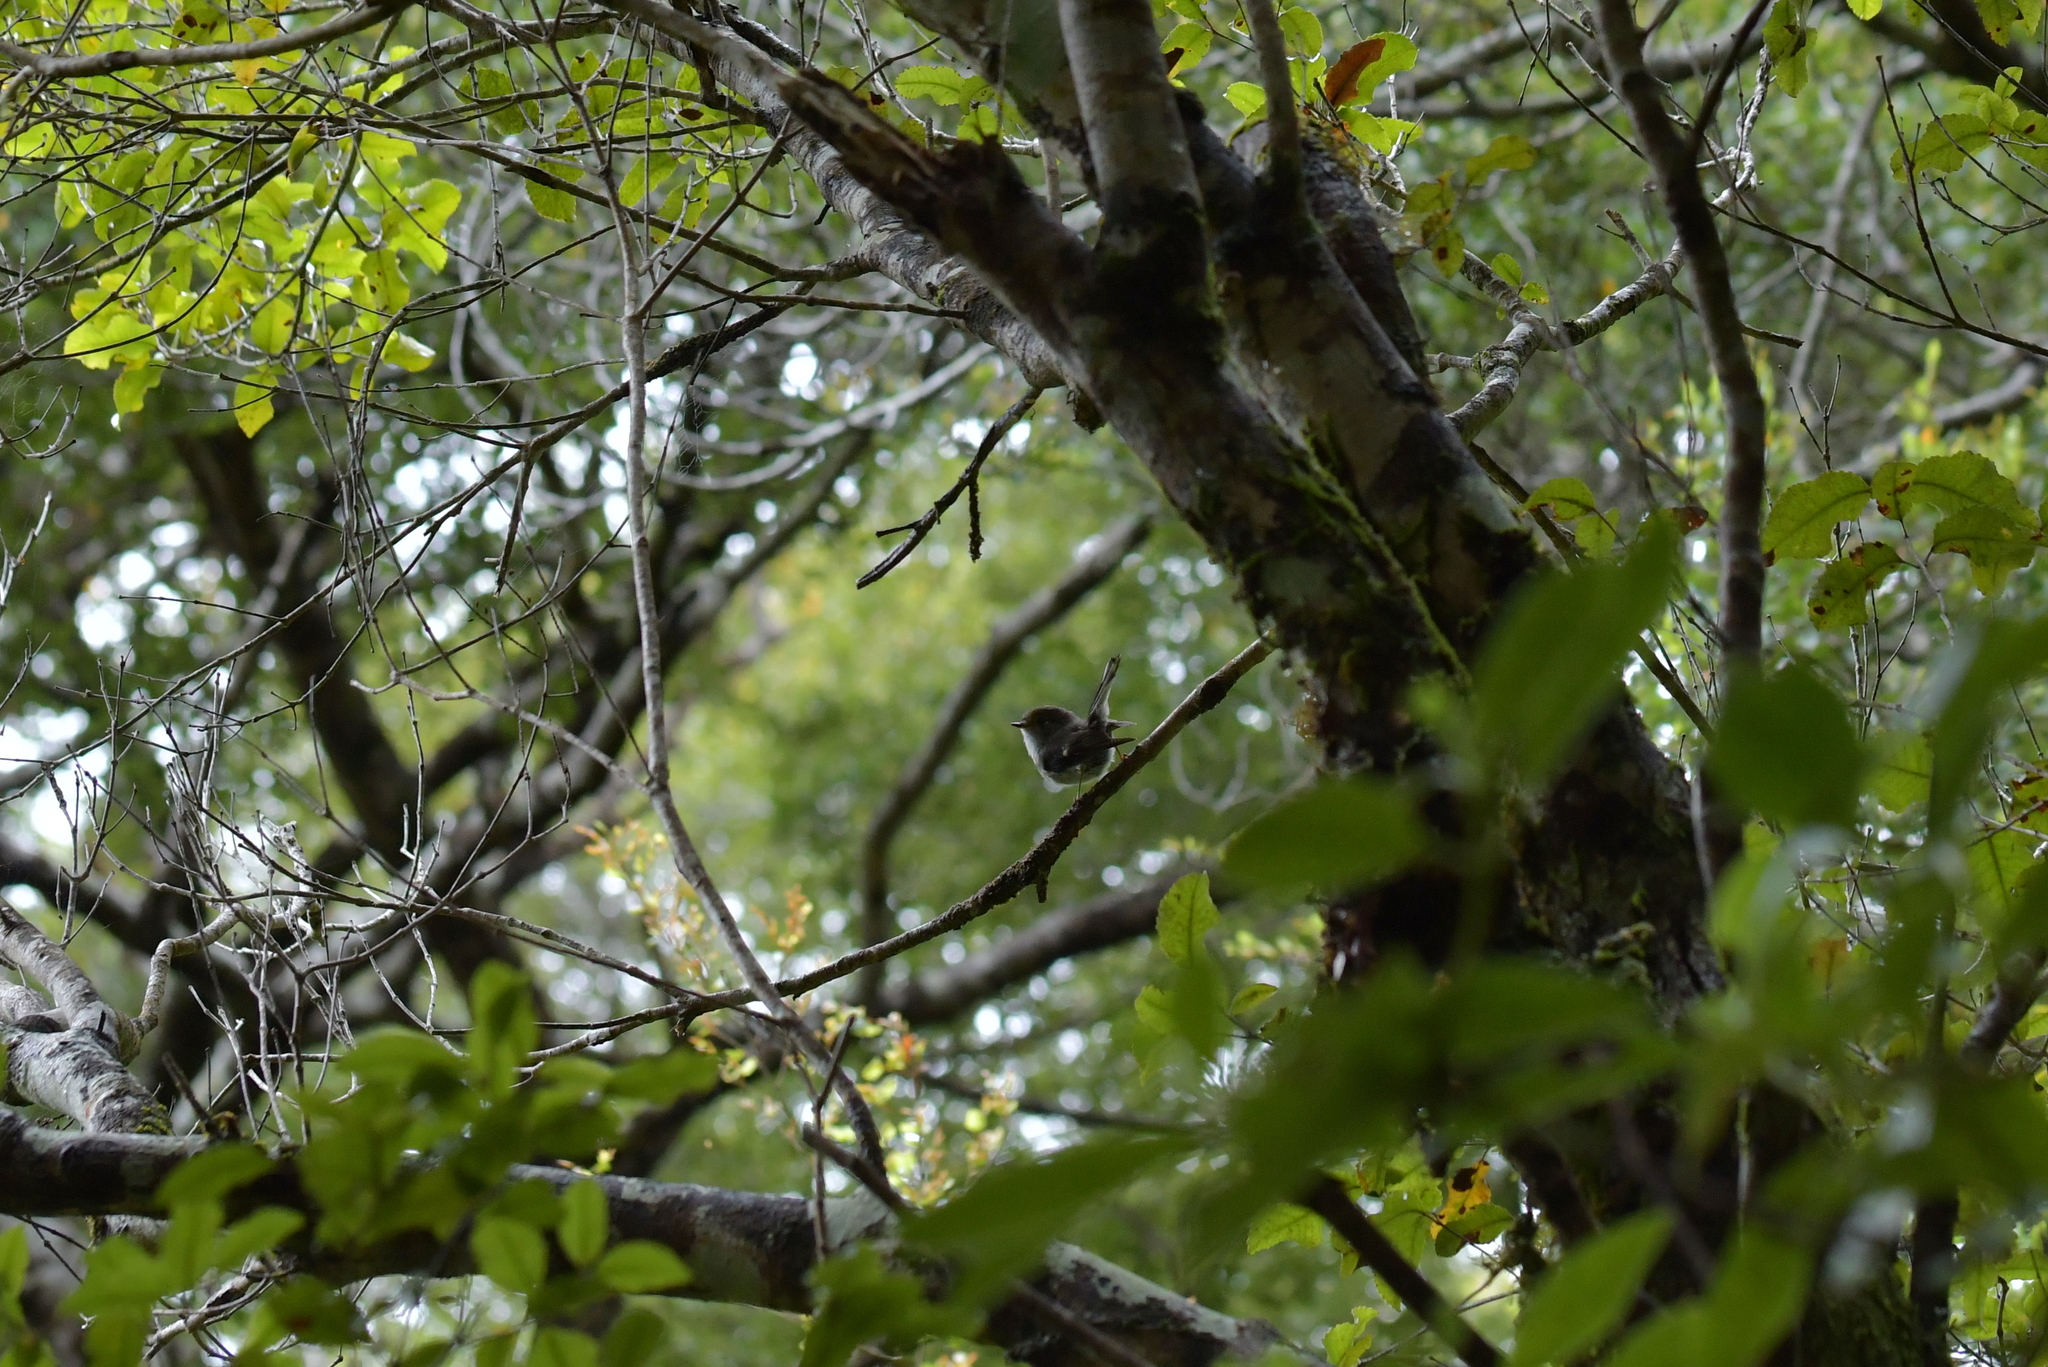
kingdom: Animalia
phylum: Chordata
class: Aves
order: Passeriformes
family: Petroicidae
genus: Petroica
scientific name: Petroica macrocephala
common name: Tomtit
